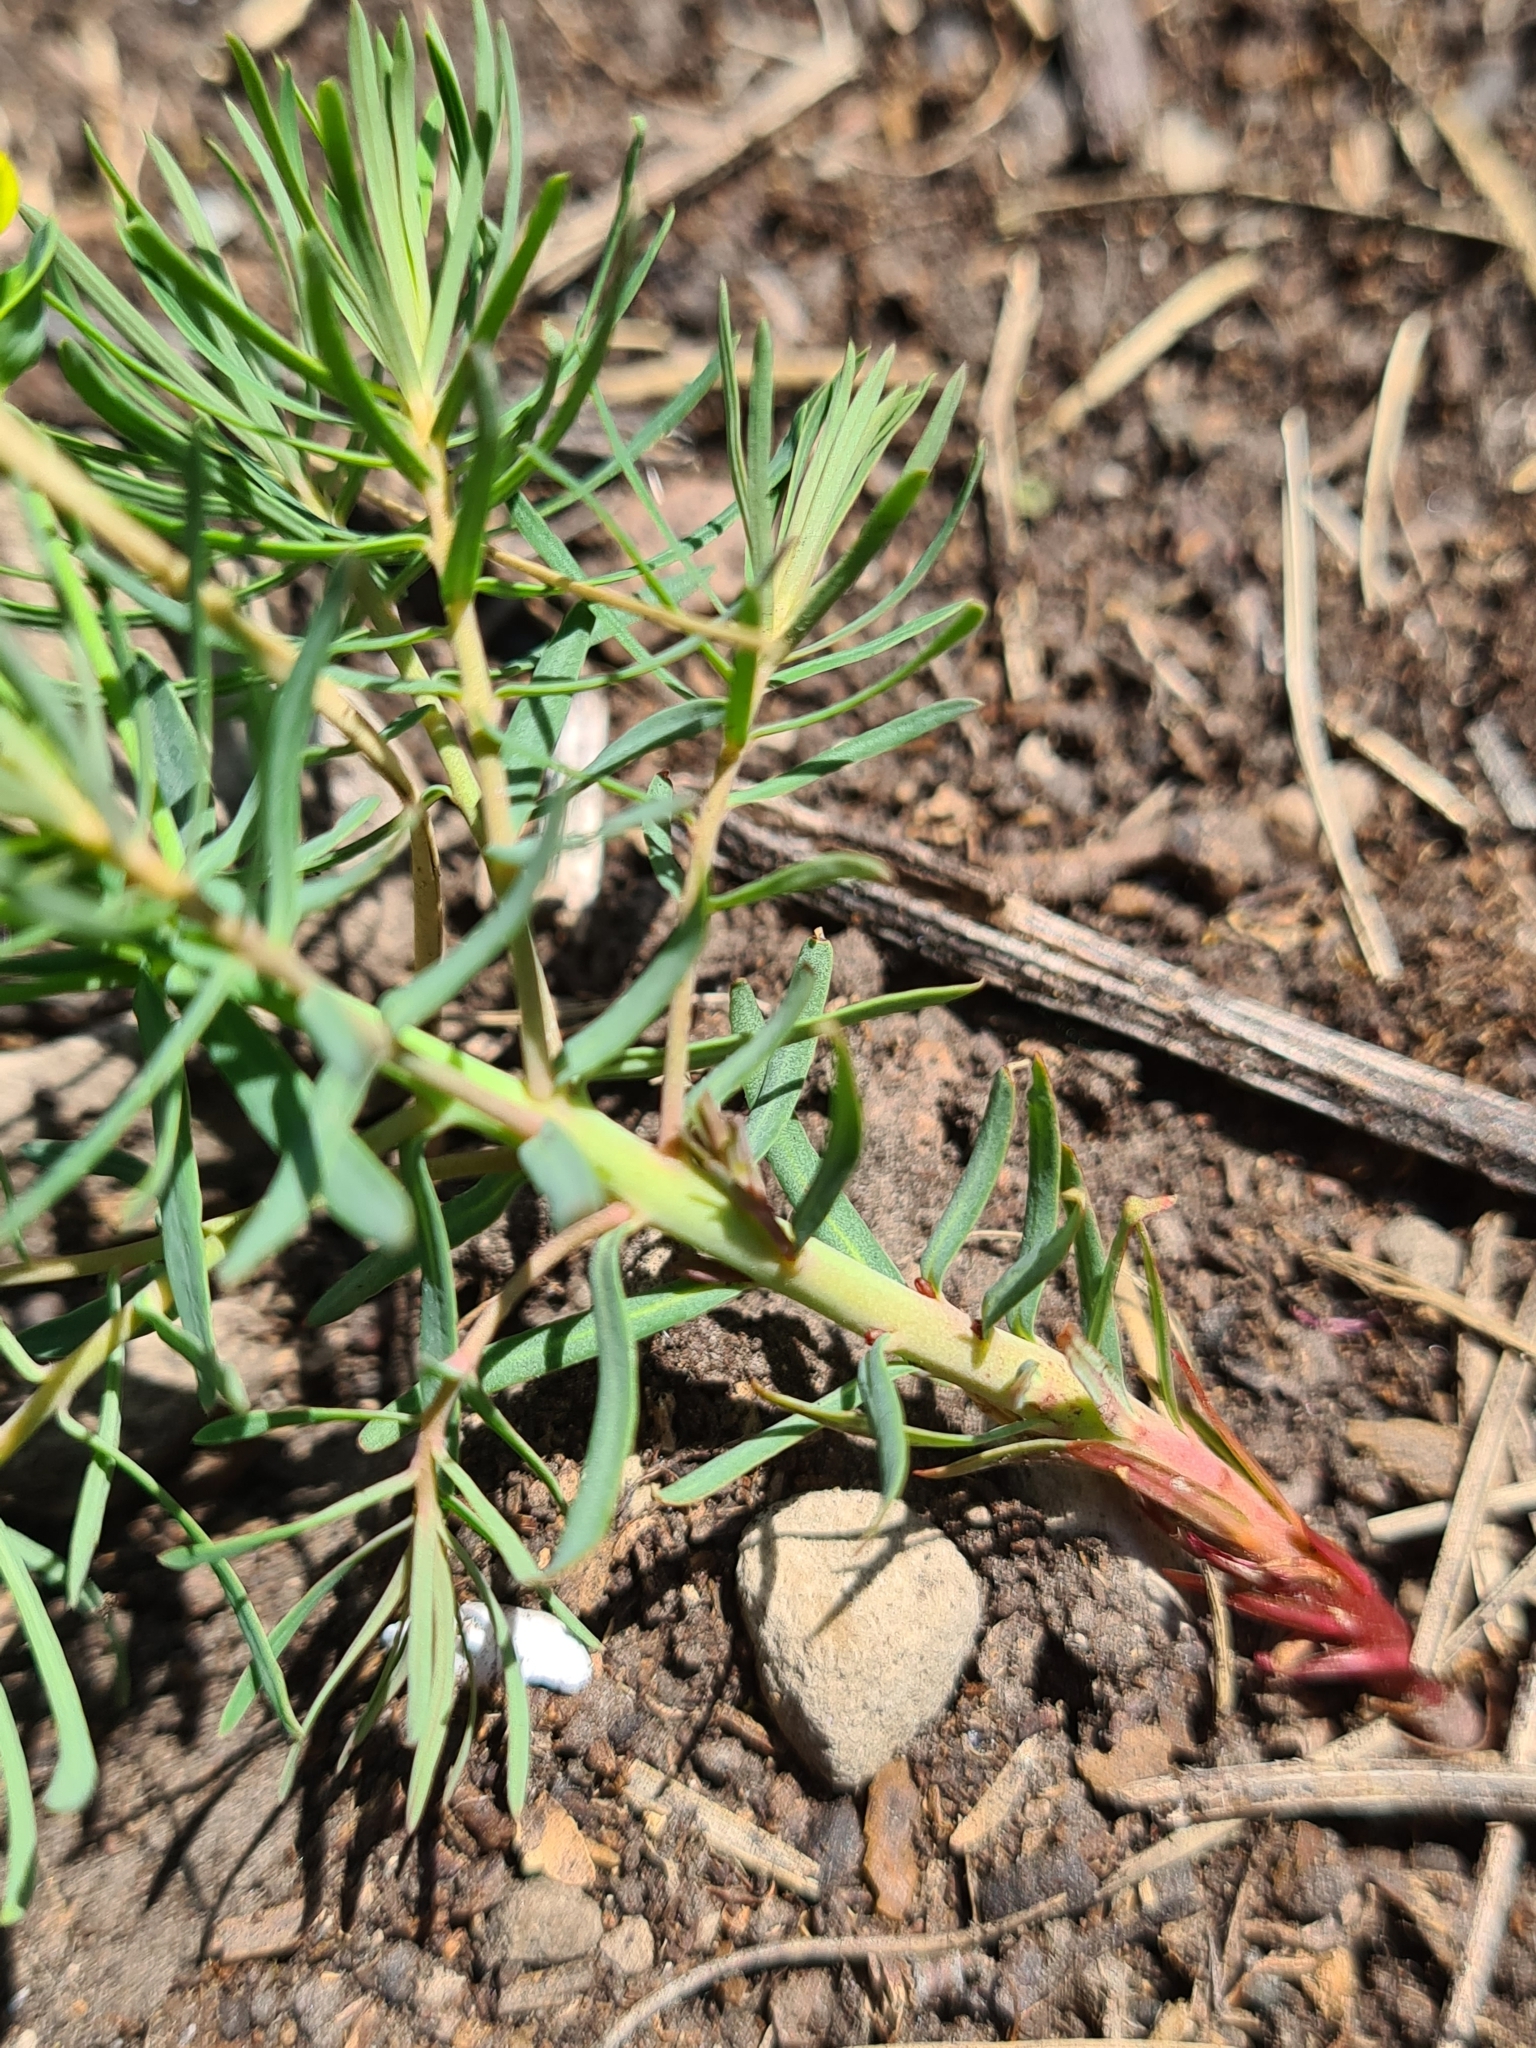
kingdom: Plantae
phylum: Tracheophyta
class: Magnoliopsida
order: Malpighiales
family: Euphorbiaceae
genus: Euphorbia
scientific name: Euphorbia cyparissias
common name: Cypress spurge
